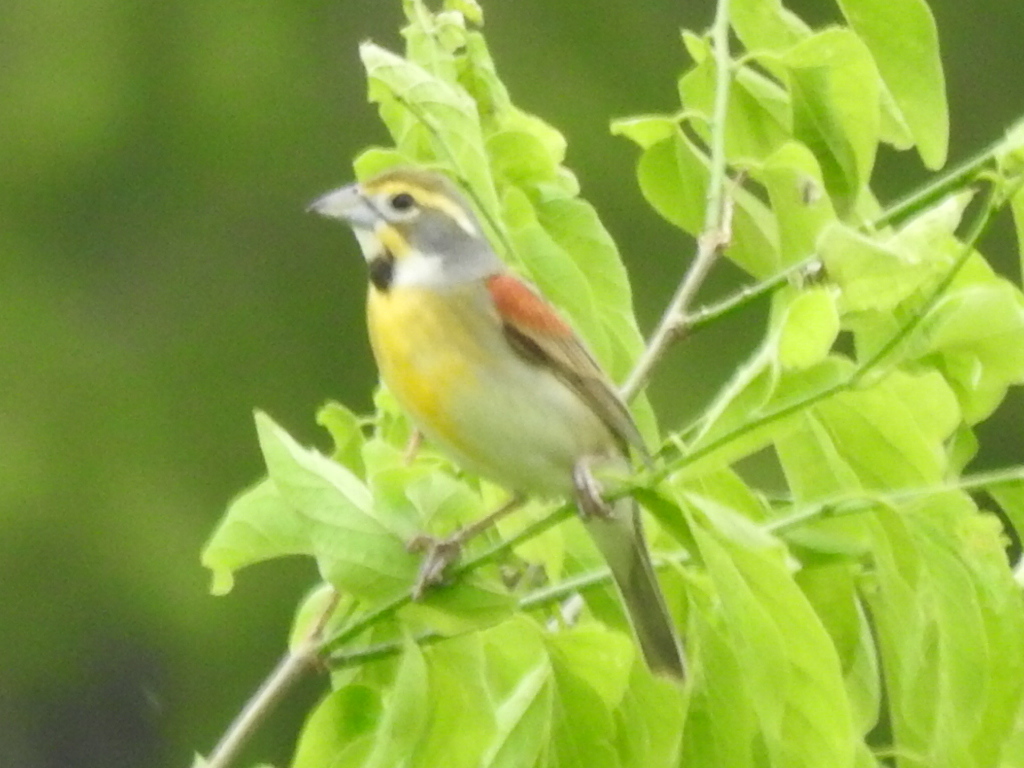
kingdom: Animalia
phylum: Chordata
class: Aves
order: Passeriformes
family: Cardinalidae
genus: Spiza
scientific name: Spiza americana
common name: Dickcissel
